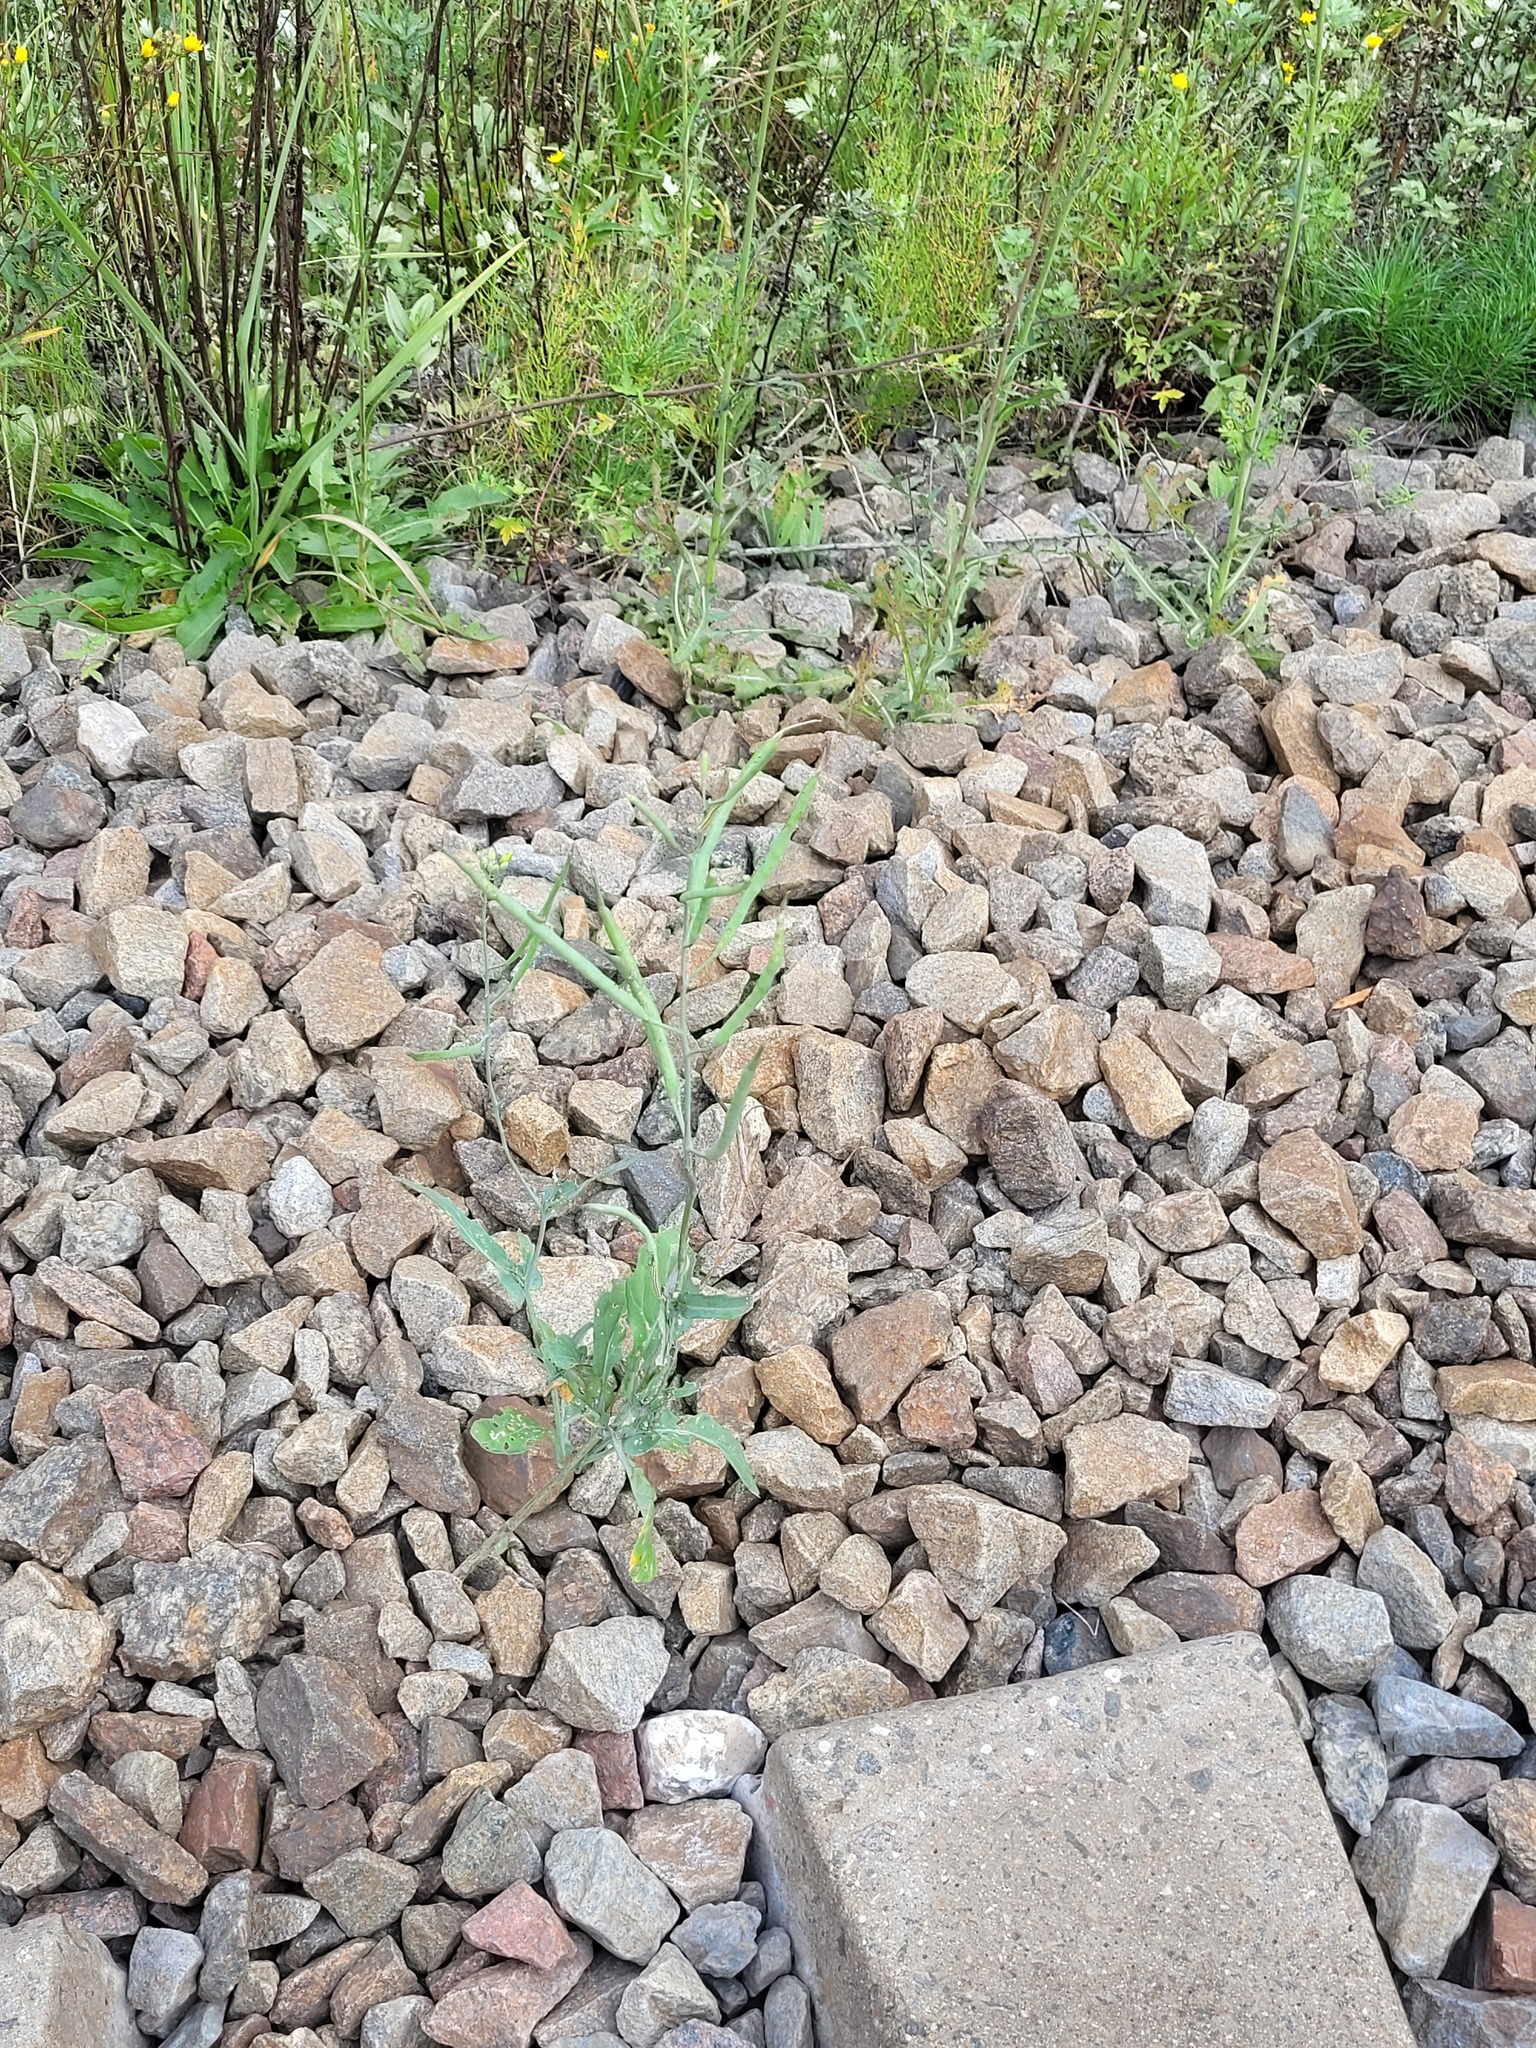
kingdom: Plantae
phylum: Tracheophyta
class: Magnoliopsida
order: Brassicales
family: Brassicaceae
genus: Brassica
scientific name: Brassica napus
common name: Rape
